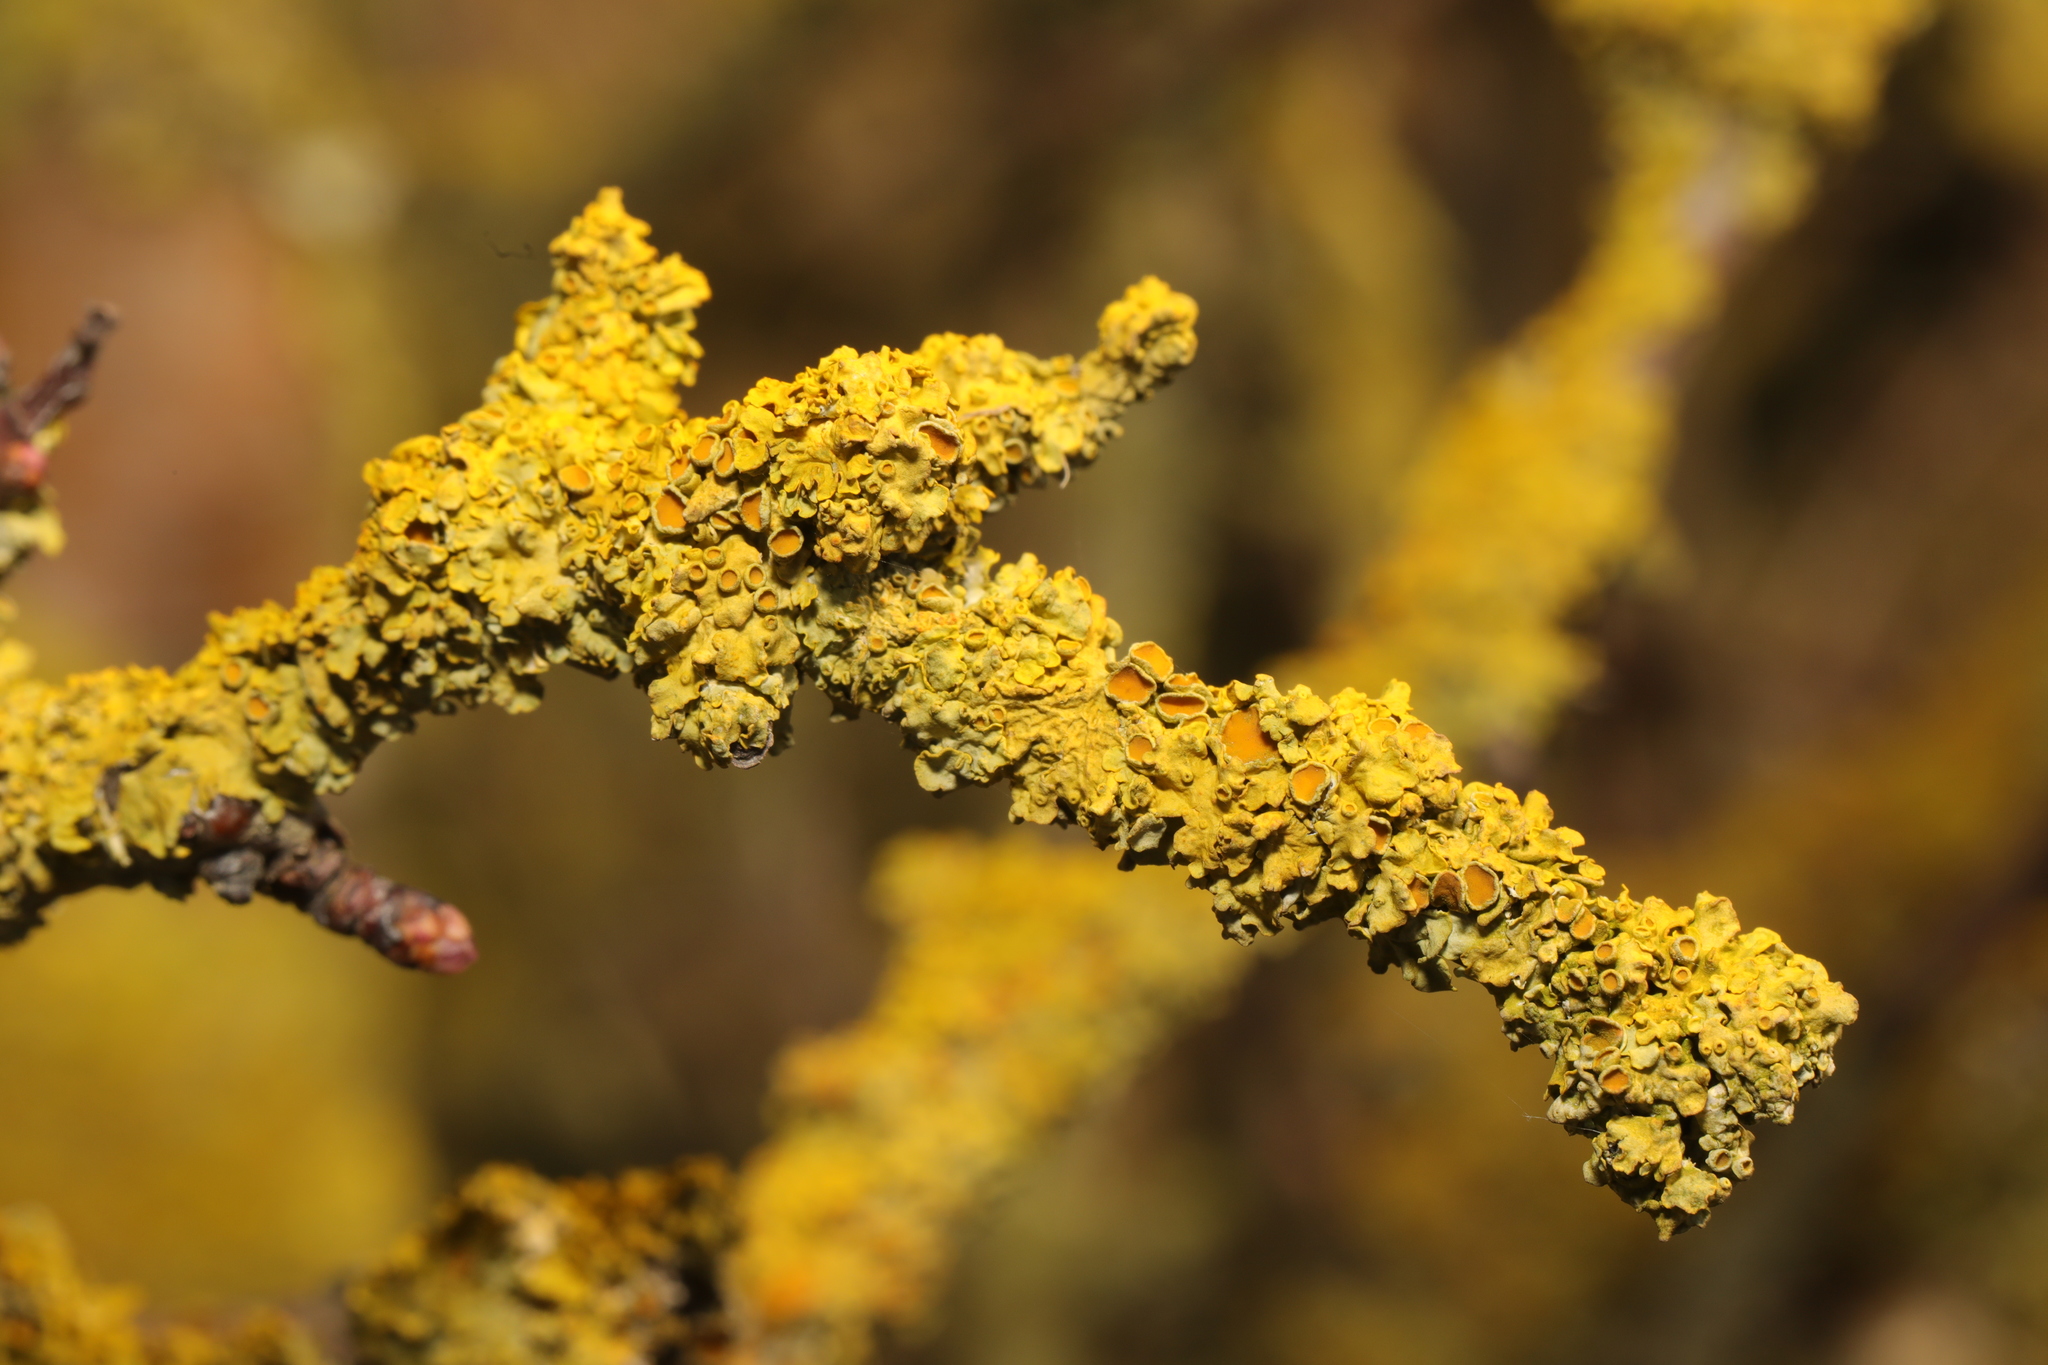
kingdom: Fungi
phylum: Ascomycota
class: Lecanoromycetes
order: Teloschistales
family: Teloschistaceae
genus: Xanthoria
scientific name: Xanthoria parietina
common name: Common orange lichen
